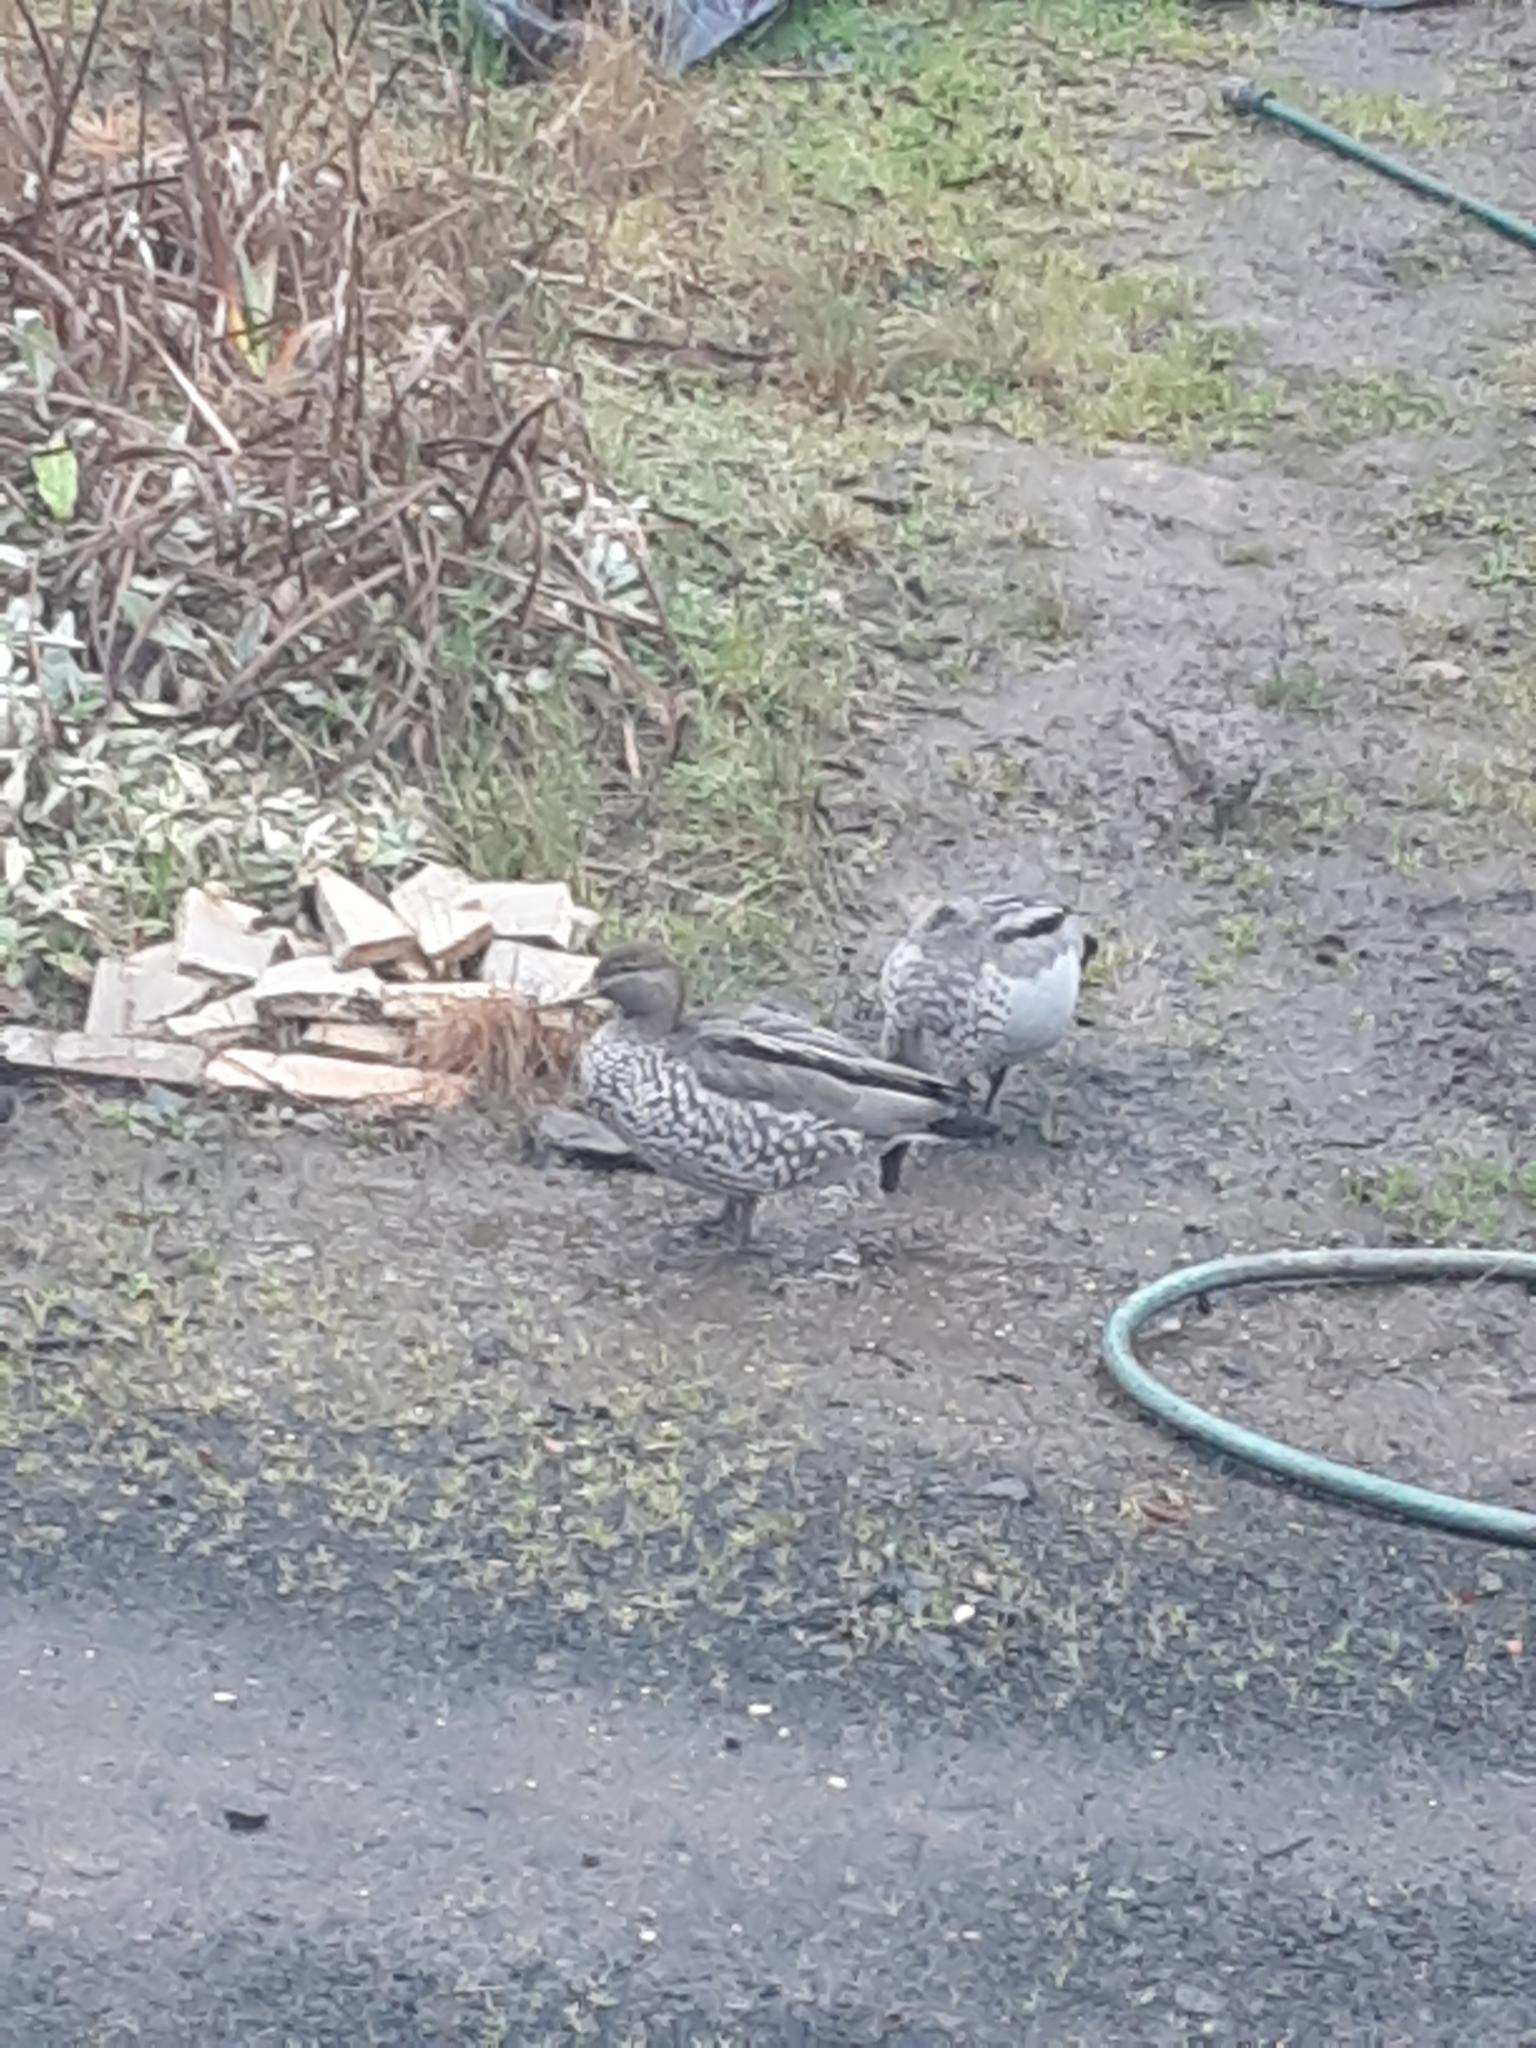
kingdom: Animalia
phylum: Chordata
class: Aves
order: Anseriformes
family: Anatidae
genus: Chenonetta
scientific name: Chenonetta jubata
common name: Maned duck
